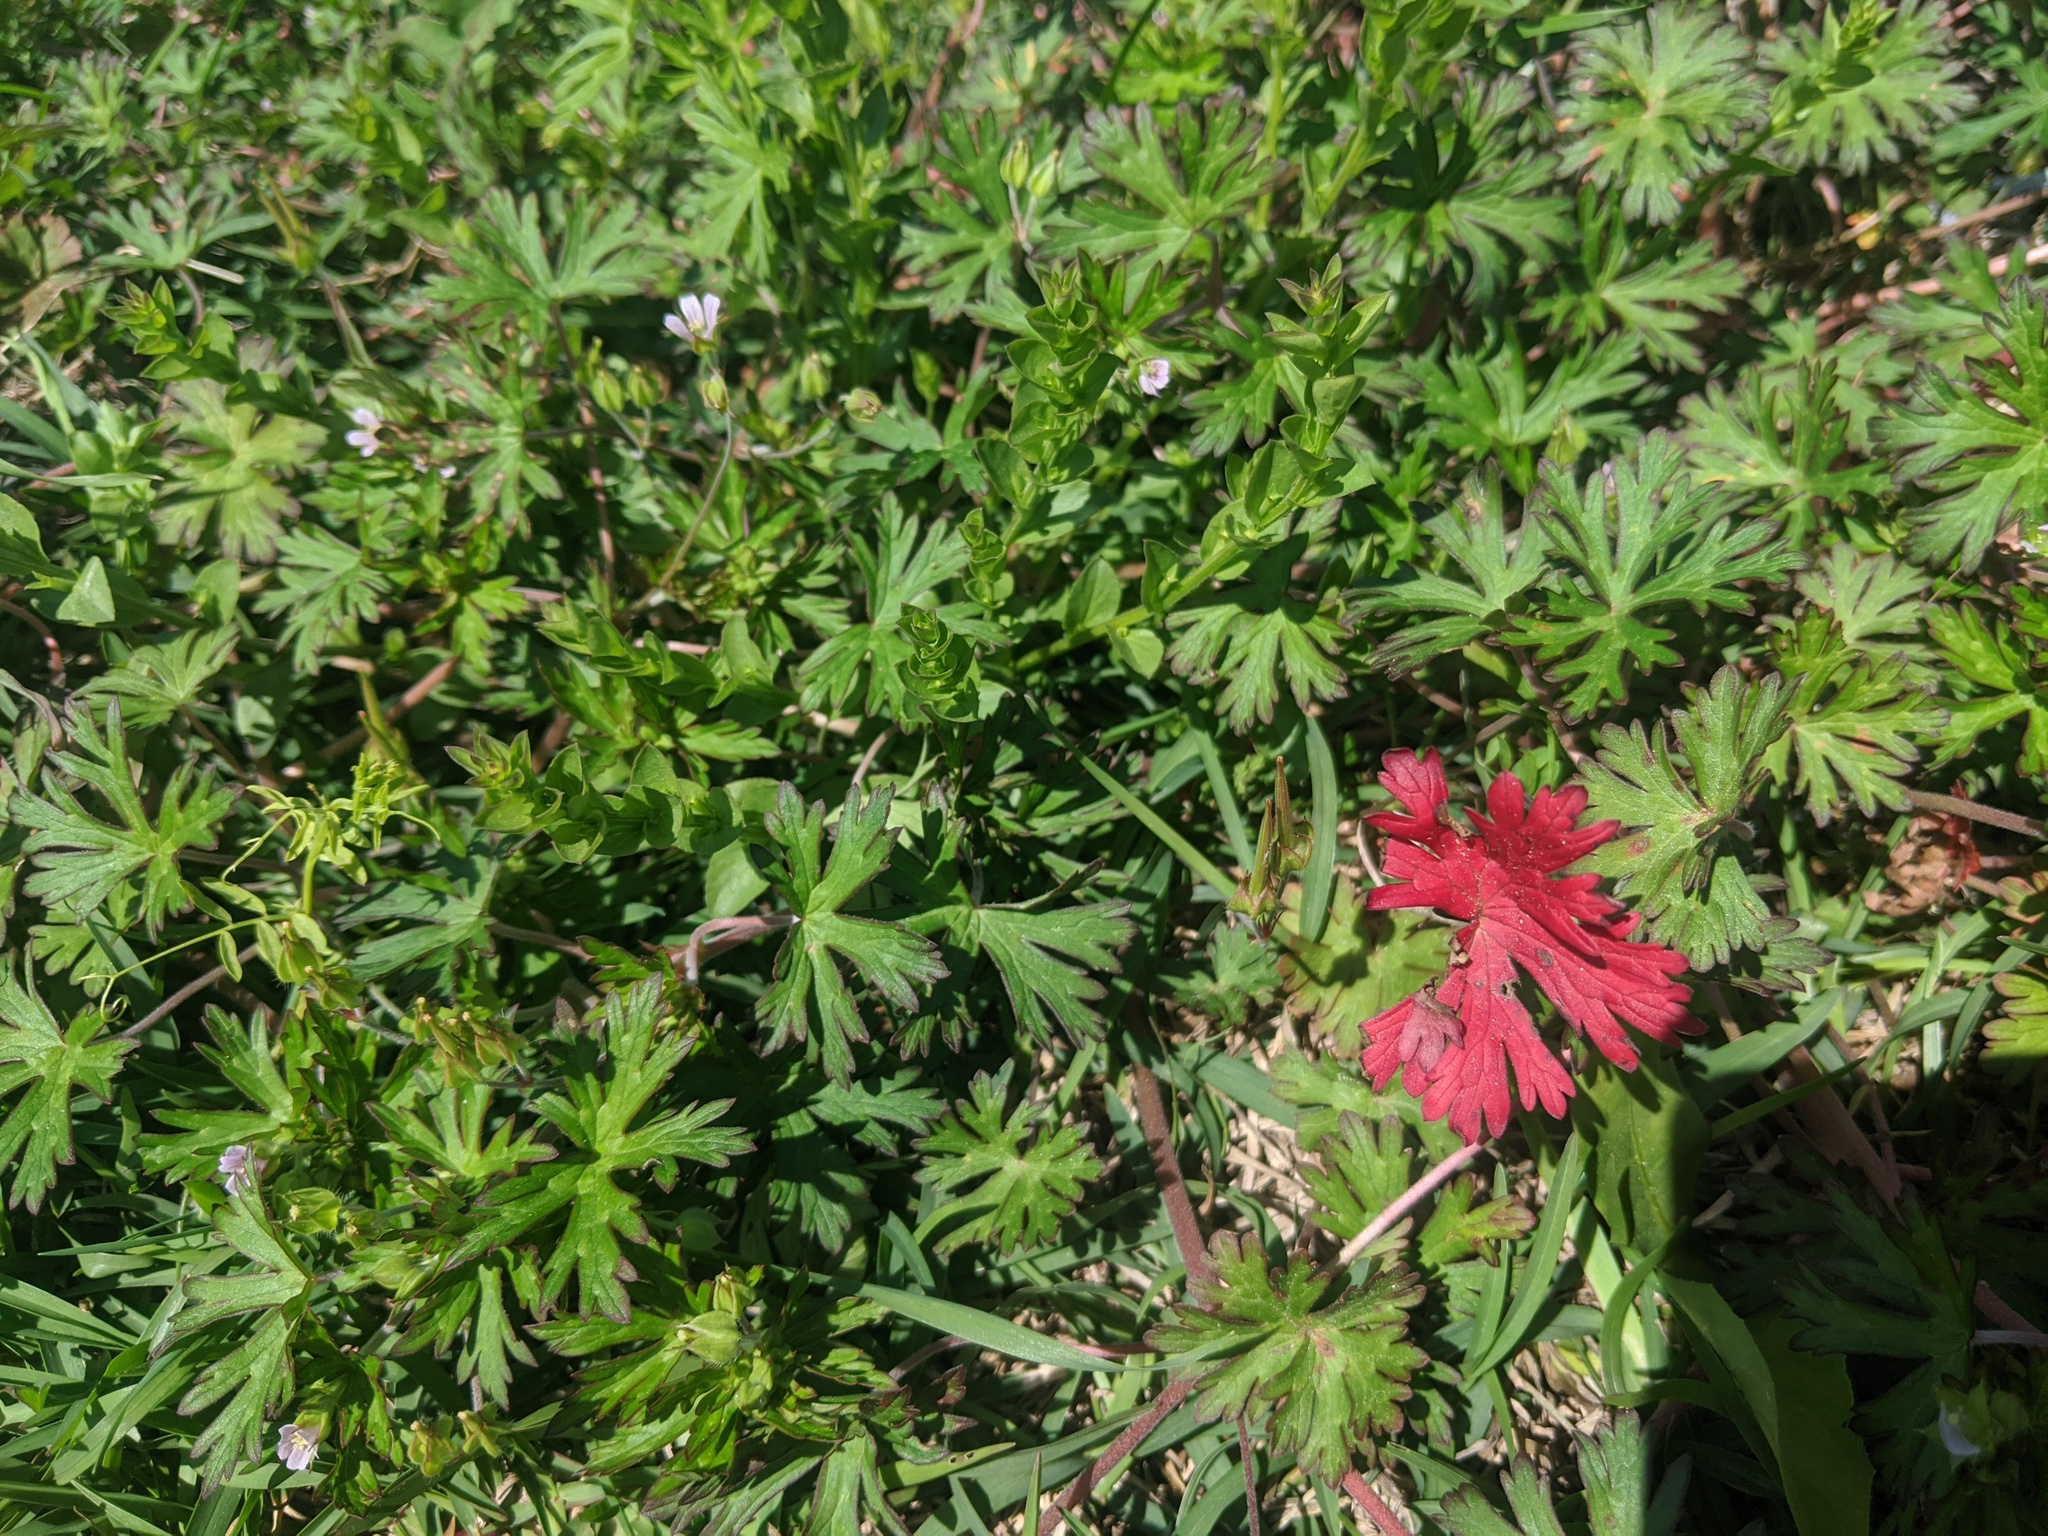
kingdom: Plantae
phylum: Tracheophyta
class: Magnoliopsida
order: Geraniales
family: Geraniaceae
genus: Geranium
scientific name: Geranium carolinianum
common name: Carolina crane's-bill
